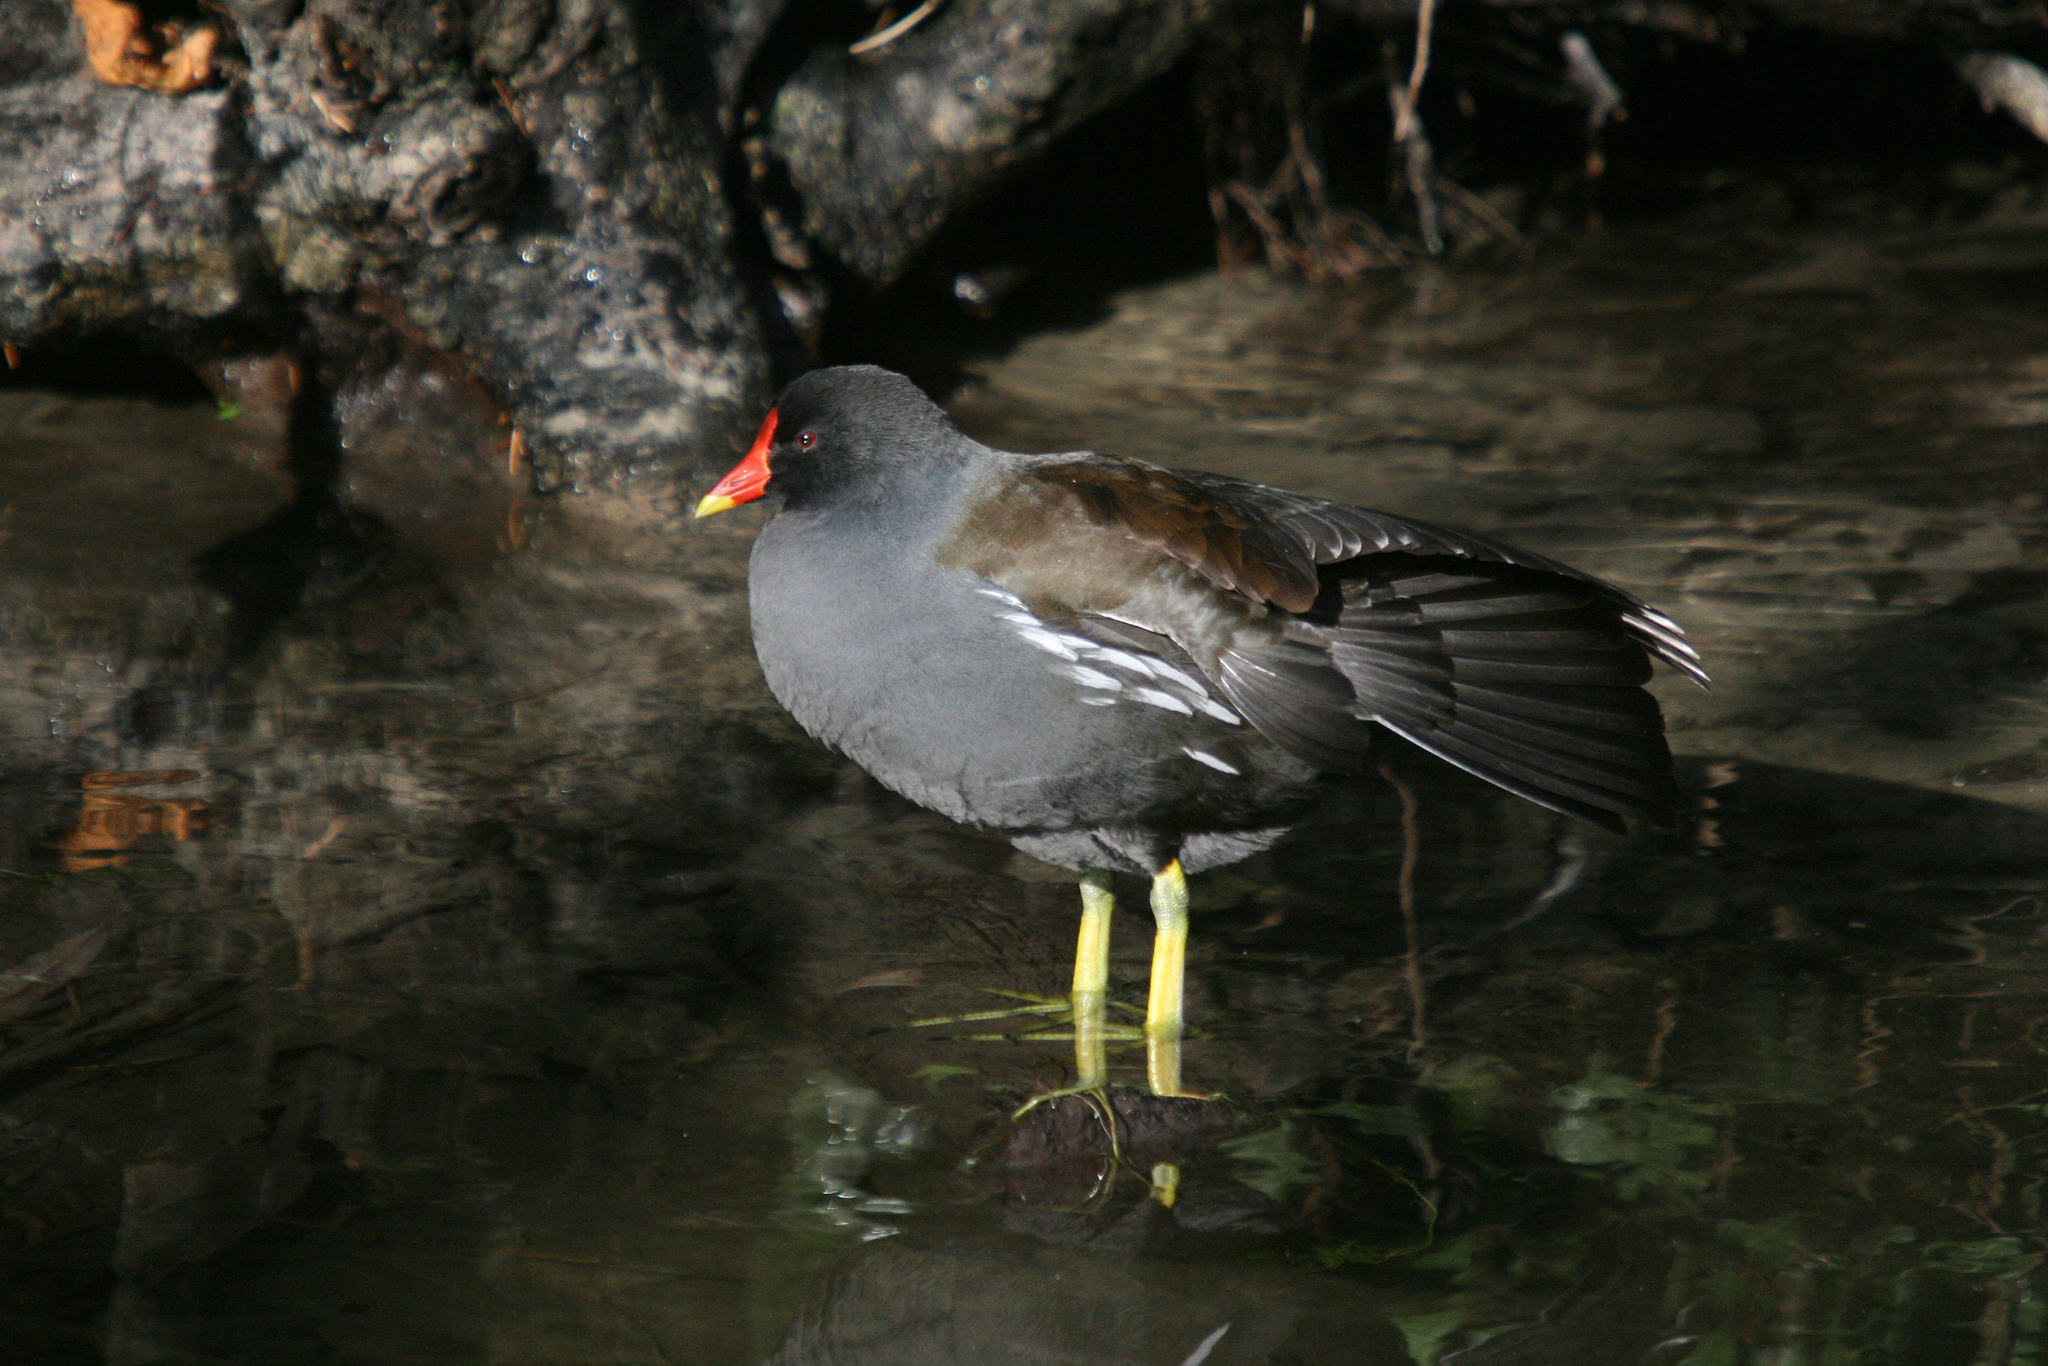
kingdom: Animalia
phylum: Chordata
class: Aves
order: Gruiformes
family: Rallidae
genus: Gallinula
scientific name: Gallinula chloropus
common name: Common moorhen
